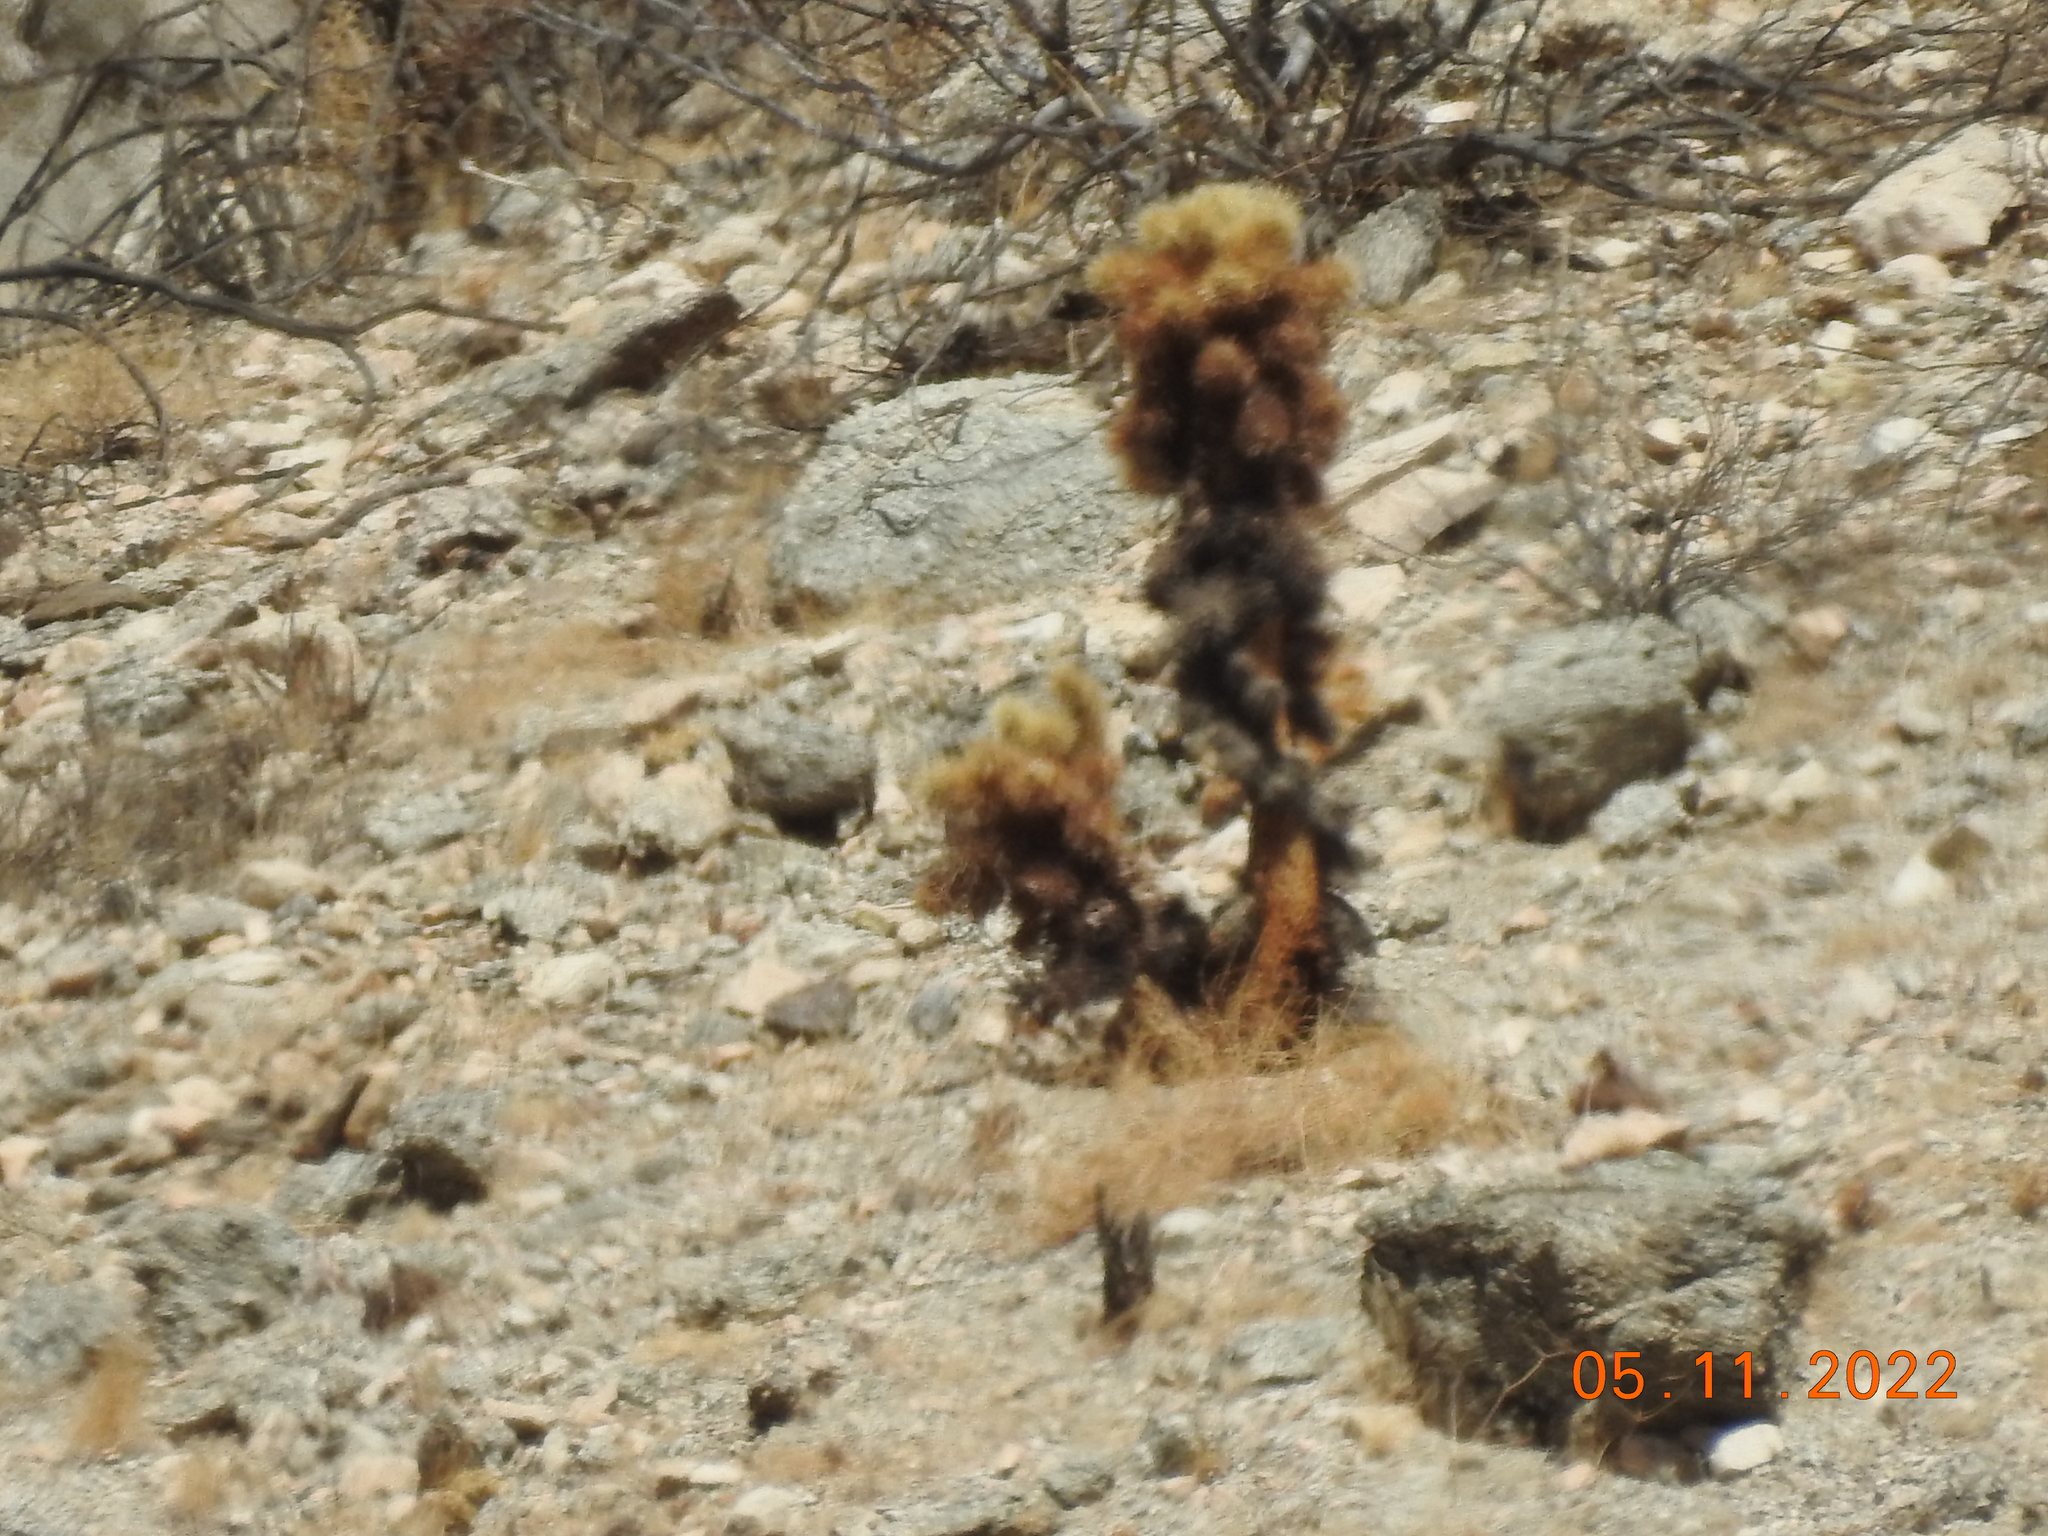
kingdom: Plantae
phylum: Tracheophyta
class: Magnoliopsida
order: Caryophyllales
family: Cactaceae
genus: Cylindropuntia
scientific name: Cylindropuntia fosbergii
